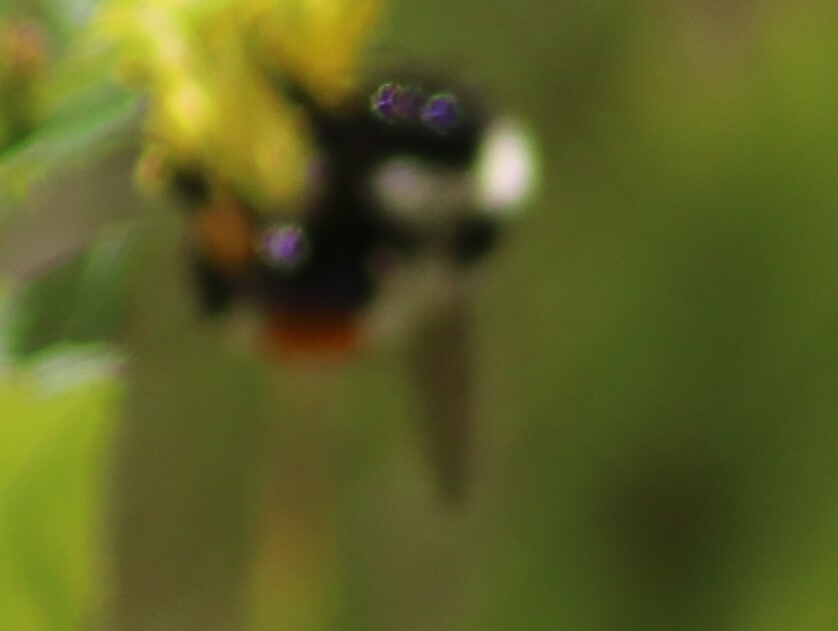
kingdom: Animalia
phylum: Arthropoda
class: Insecta
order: Hymenoptera
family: Apidae
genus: Bombus
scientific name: Bombus ternarius
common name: Tri-colored bumble bee
